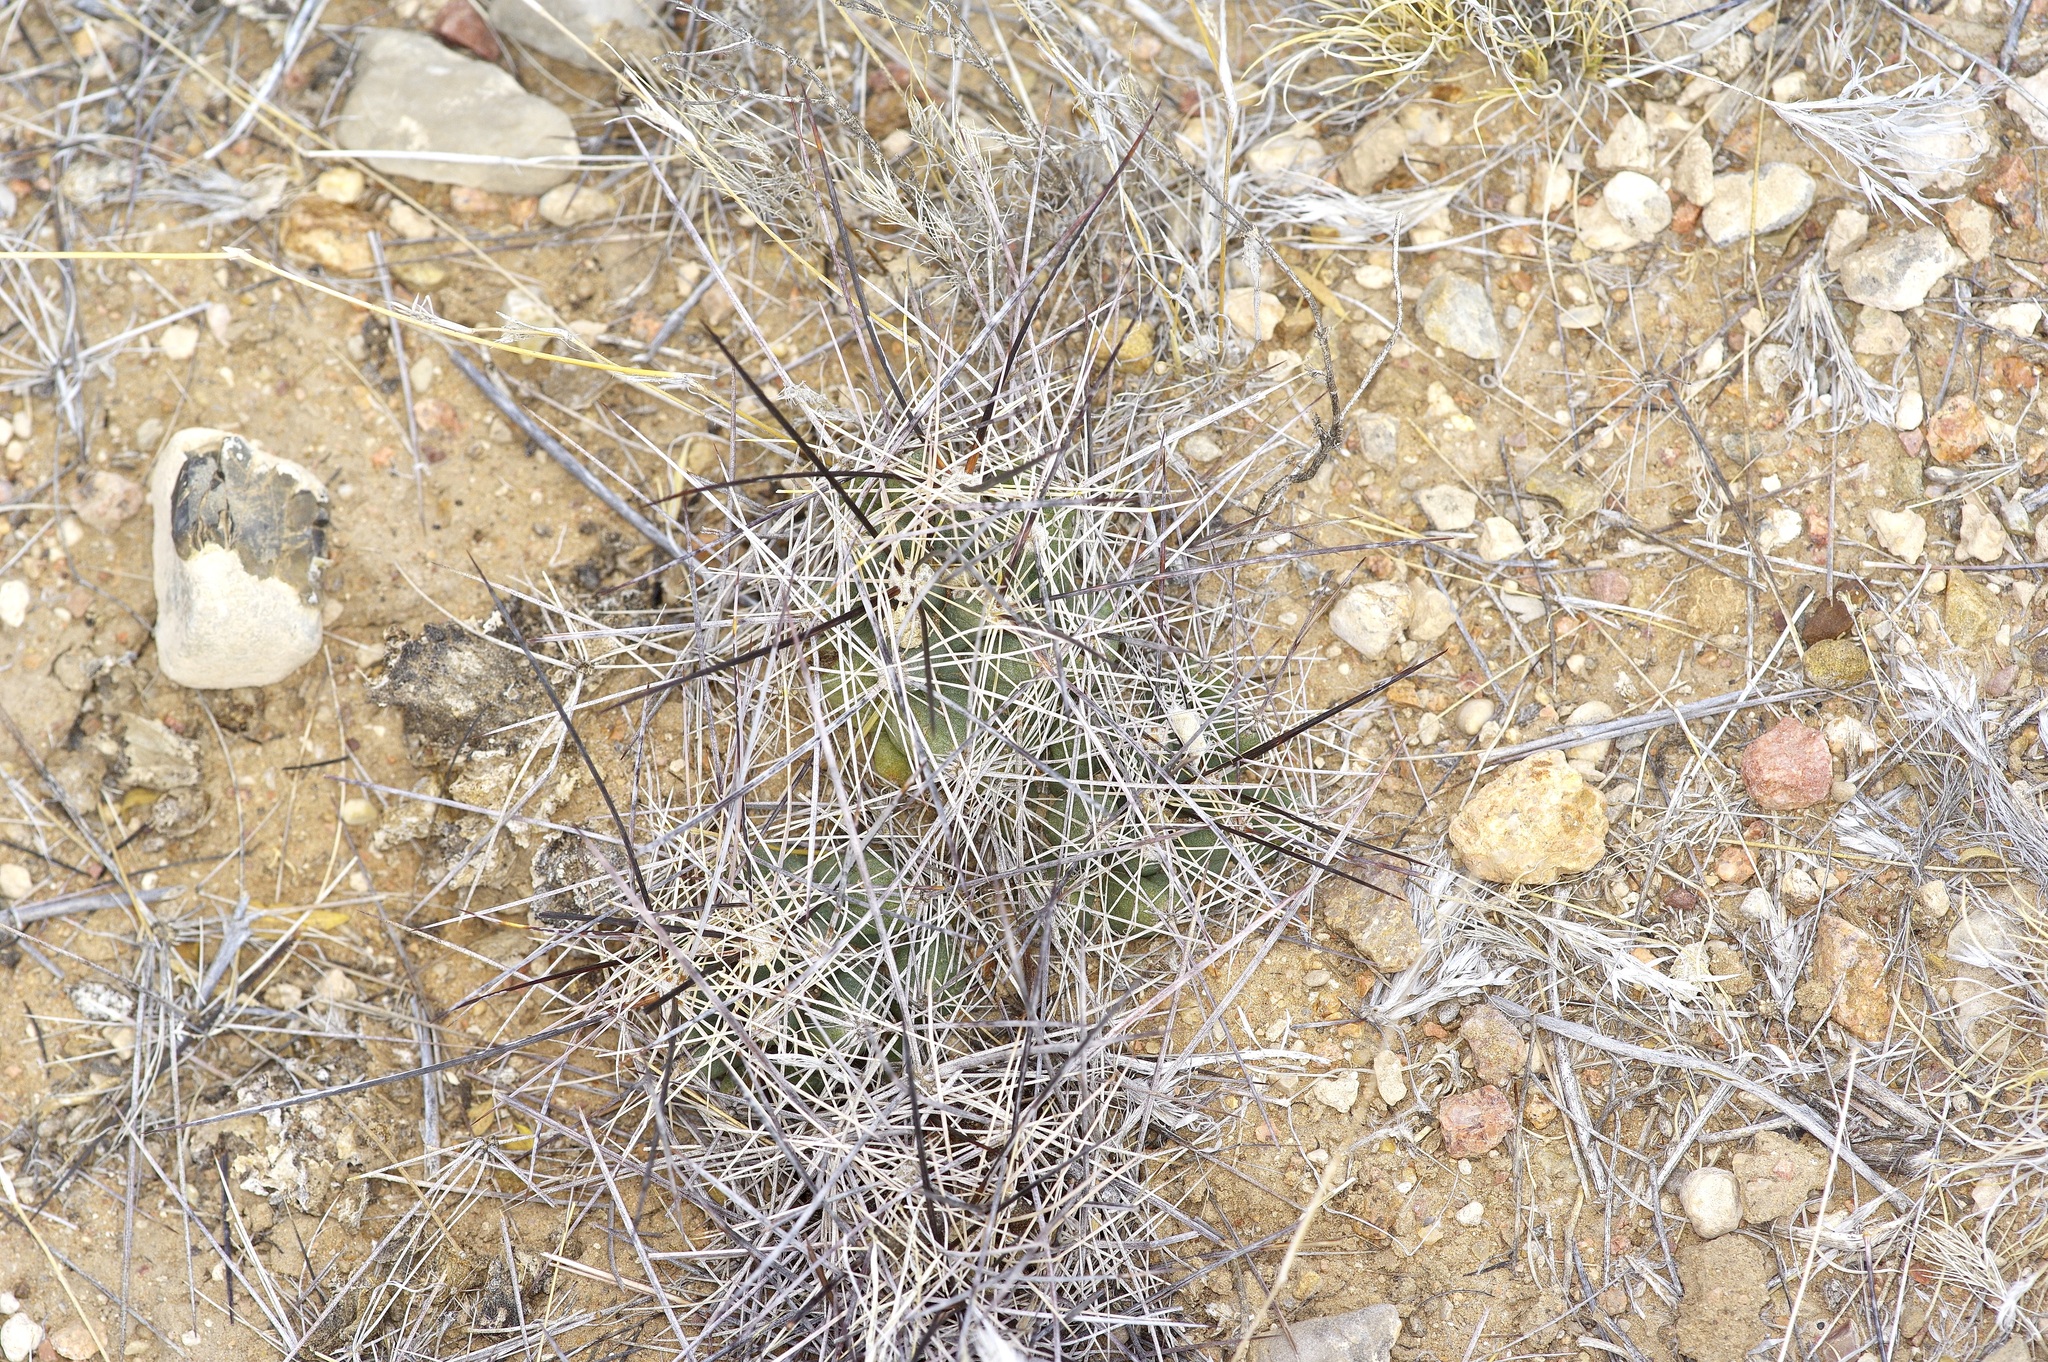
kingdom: Plantae
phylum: Tracheophyta
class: Magnoliopsida
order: Caryophyllales
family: Cactaceae
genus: Coryphantha
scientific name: Coryphantha macromeris
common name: Nipple beehive cactus
